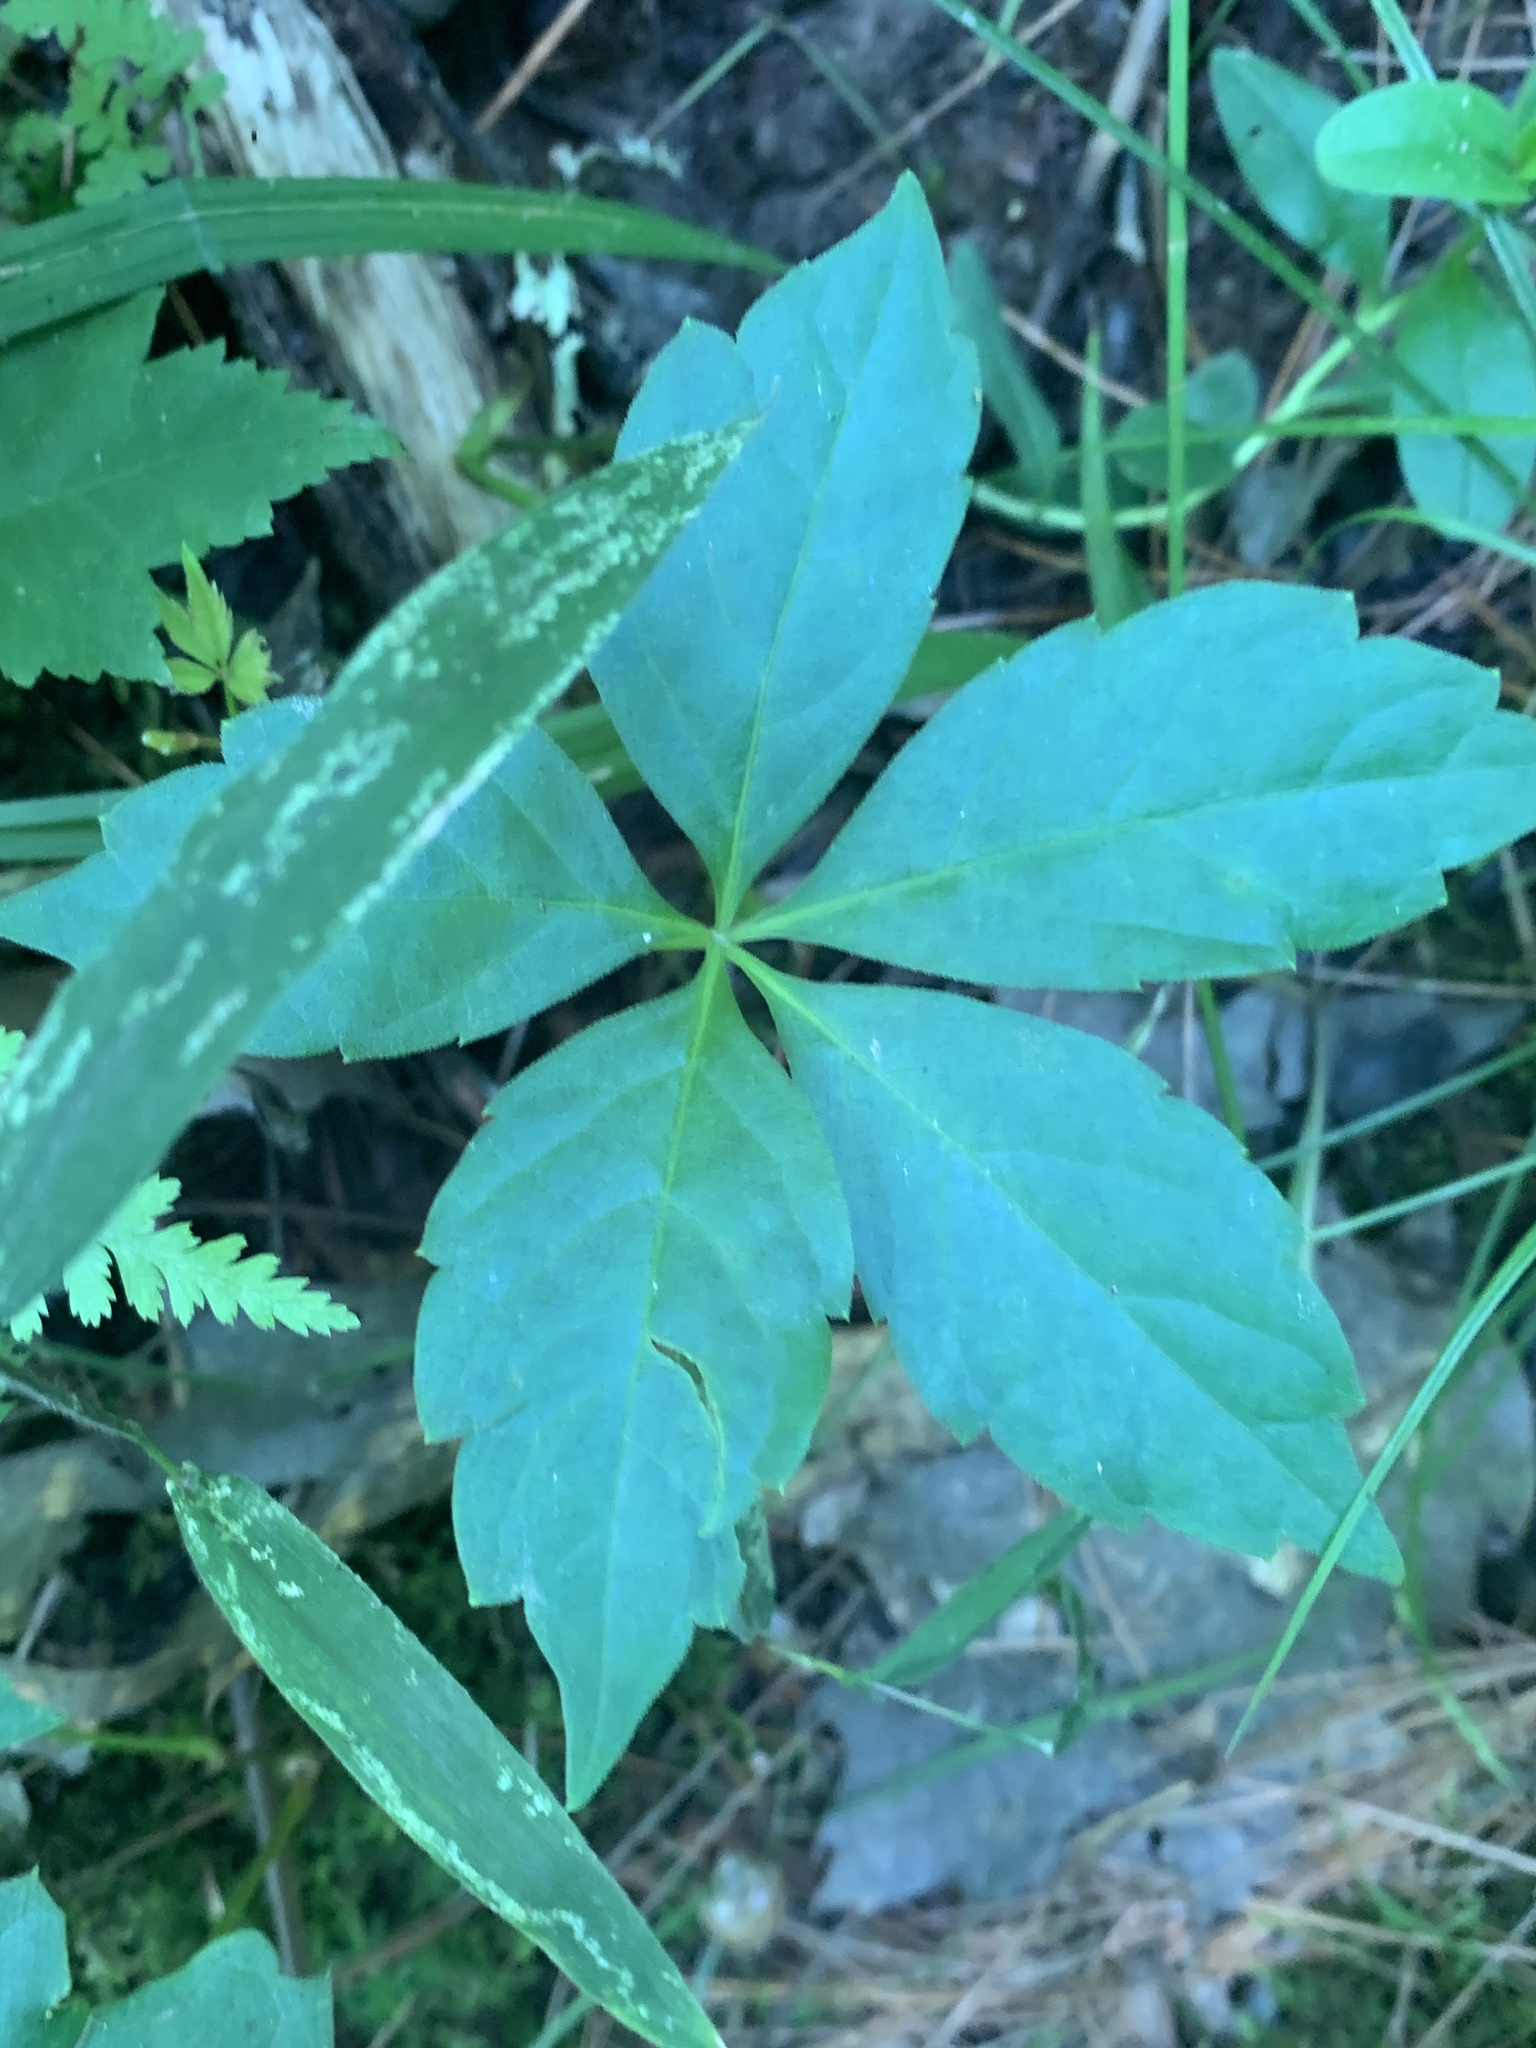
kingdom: Plantae
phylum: Tracheophyta
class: Magnoliopsida
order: Vitales
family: Vitaceae
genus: Parthenocissus
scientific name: Parthenocissus quinquefolia
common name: Virginia-creeper
